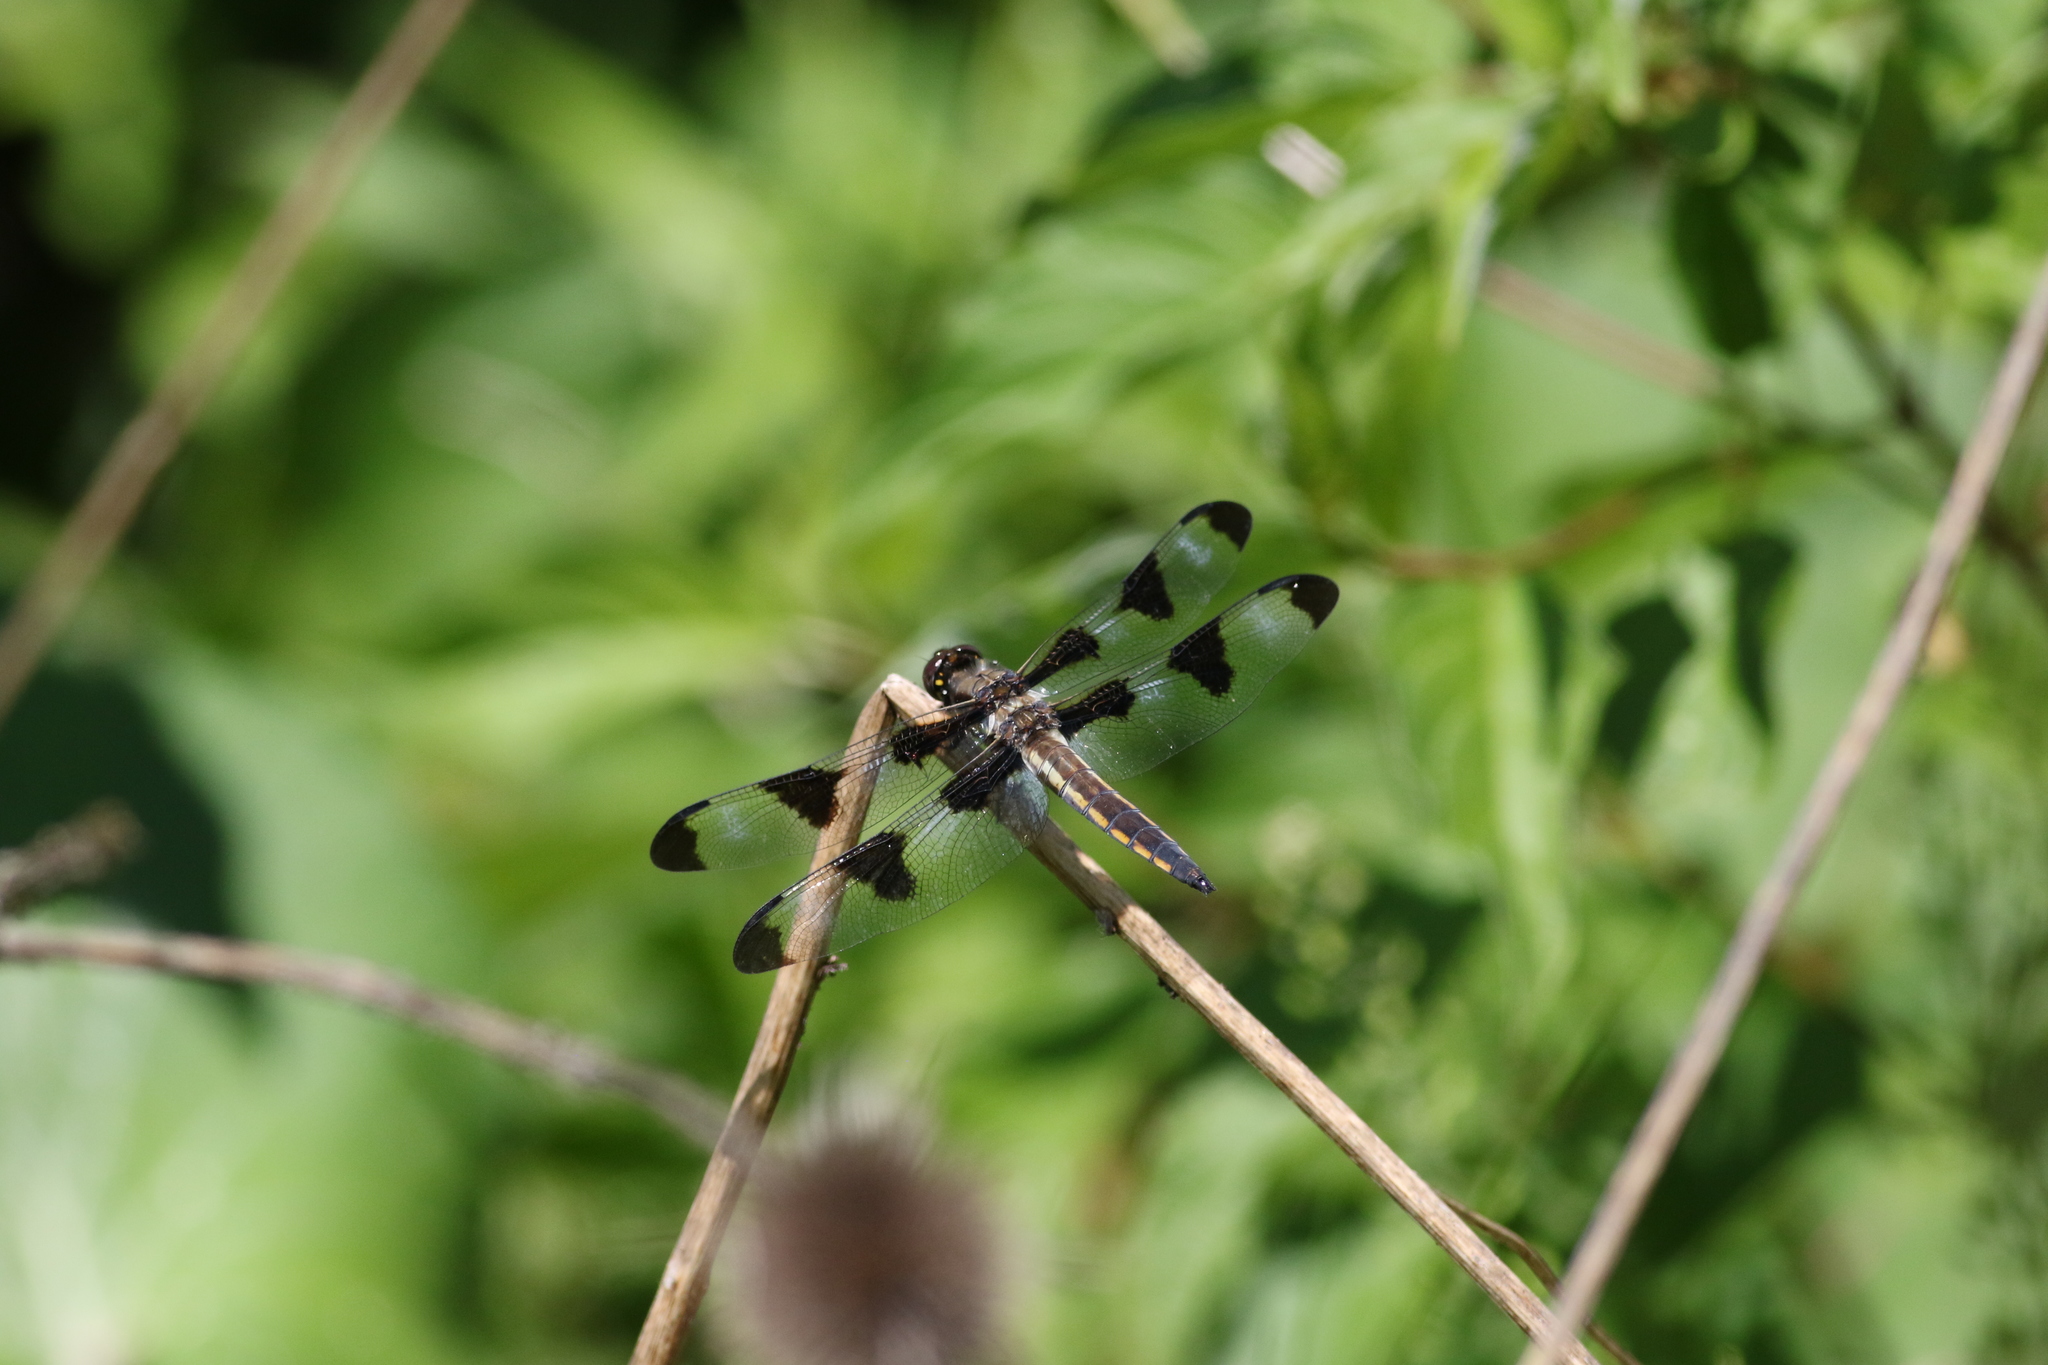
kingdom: Animalia
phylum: Arthropoda
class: Insecta
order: Odonata
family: Libellulidae
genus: Libellula
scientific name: Libellula pulchella
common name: Twelve-spotted skimmer
